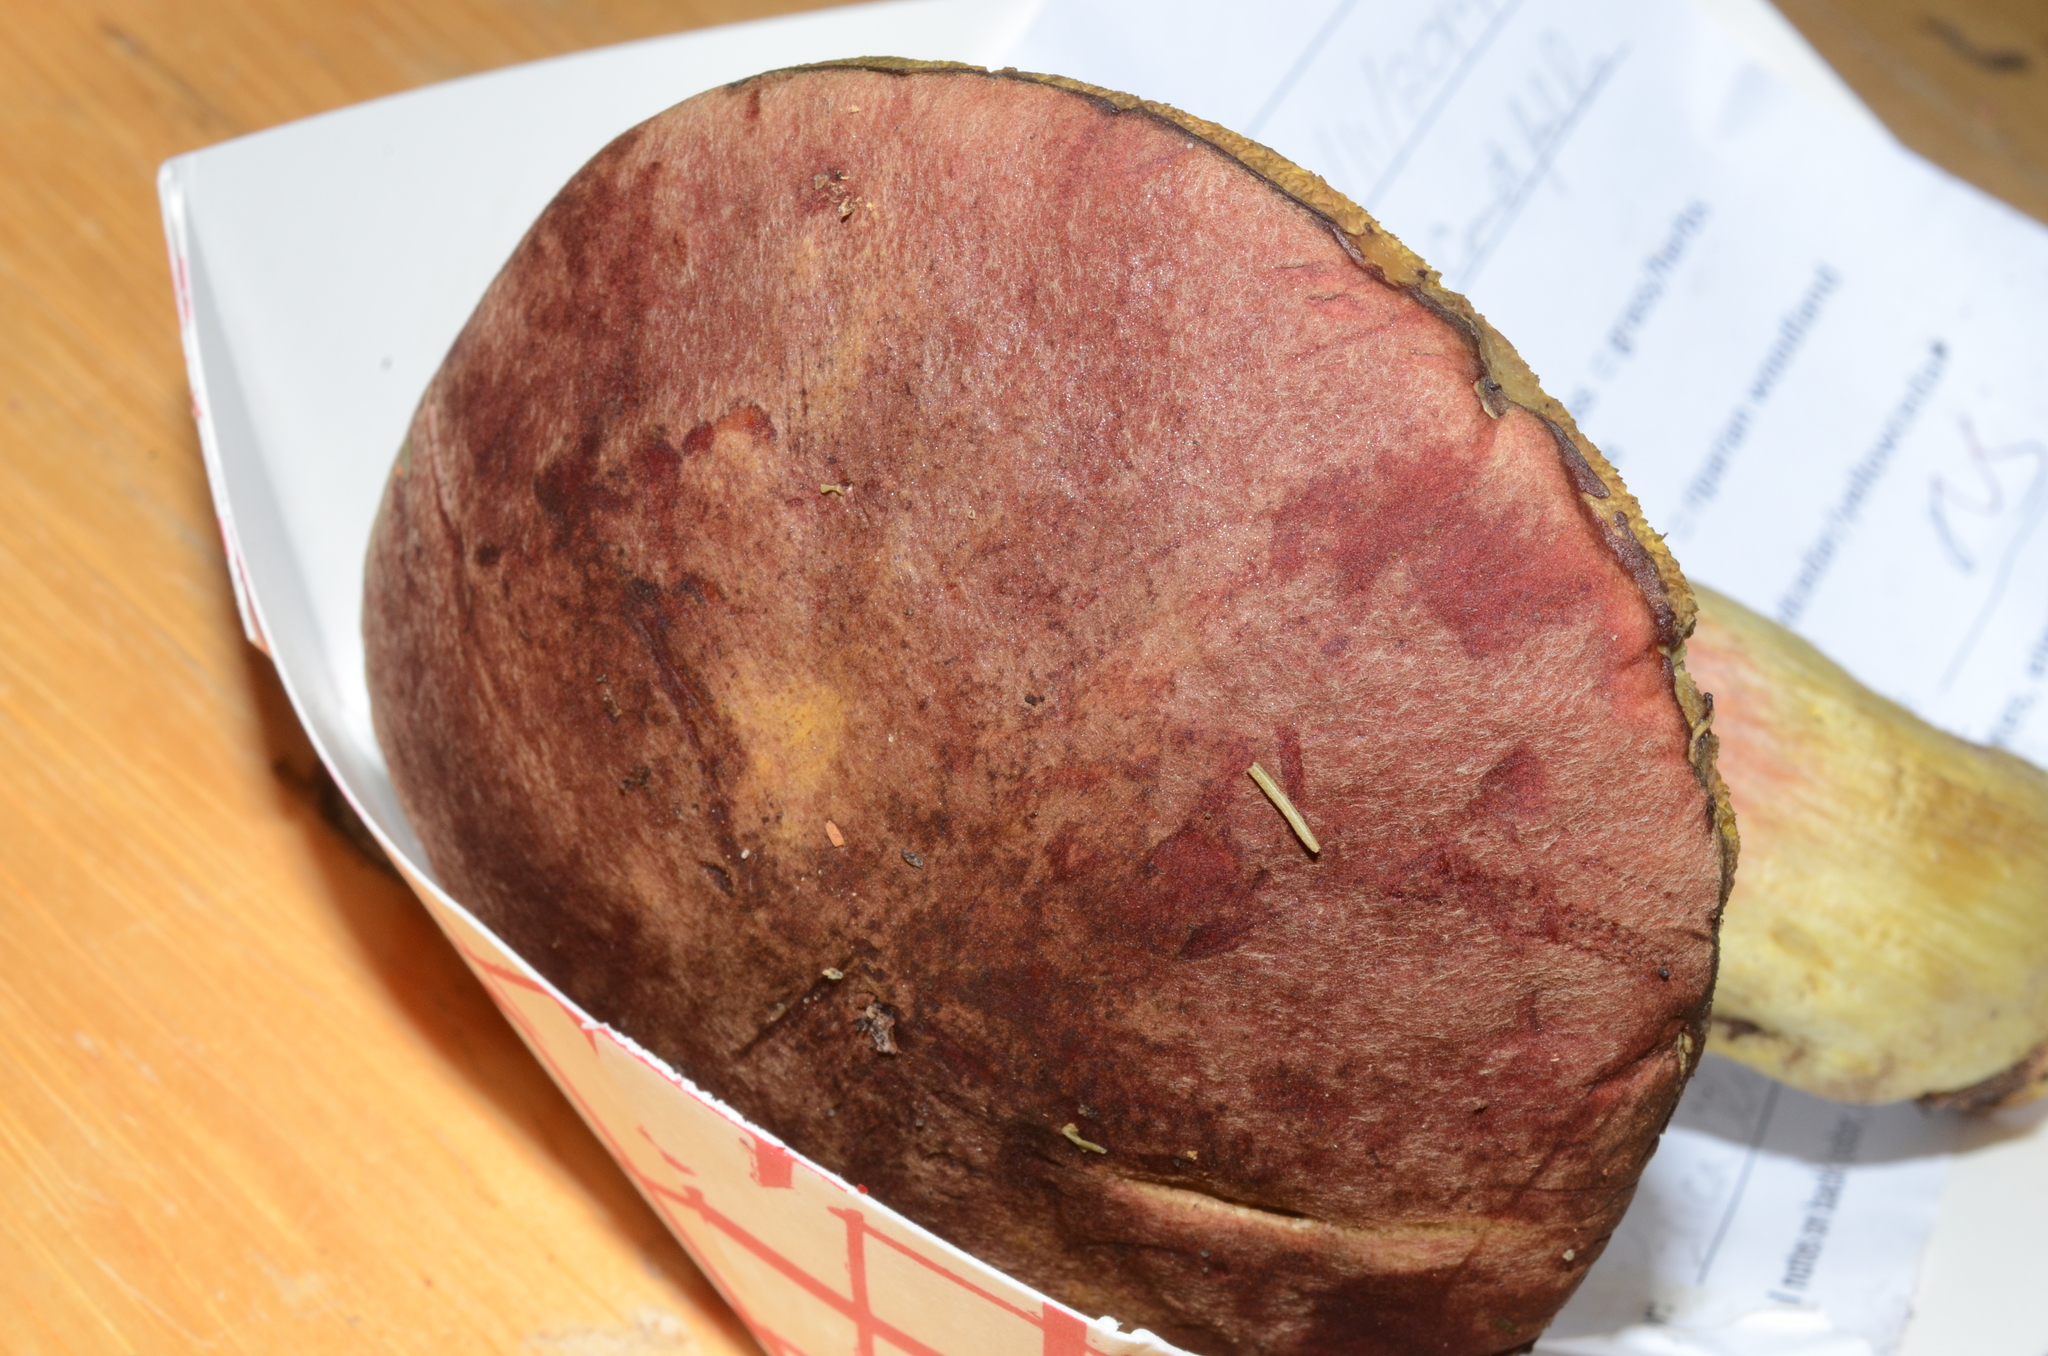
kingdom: Fungi
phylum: Basidiomycota
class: Agaricomycetes
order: Boletales
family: Boletaceae
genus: Boletus
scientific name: Boletus smithii
